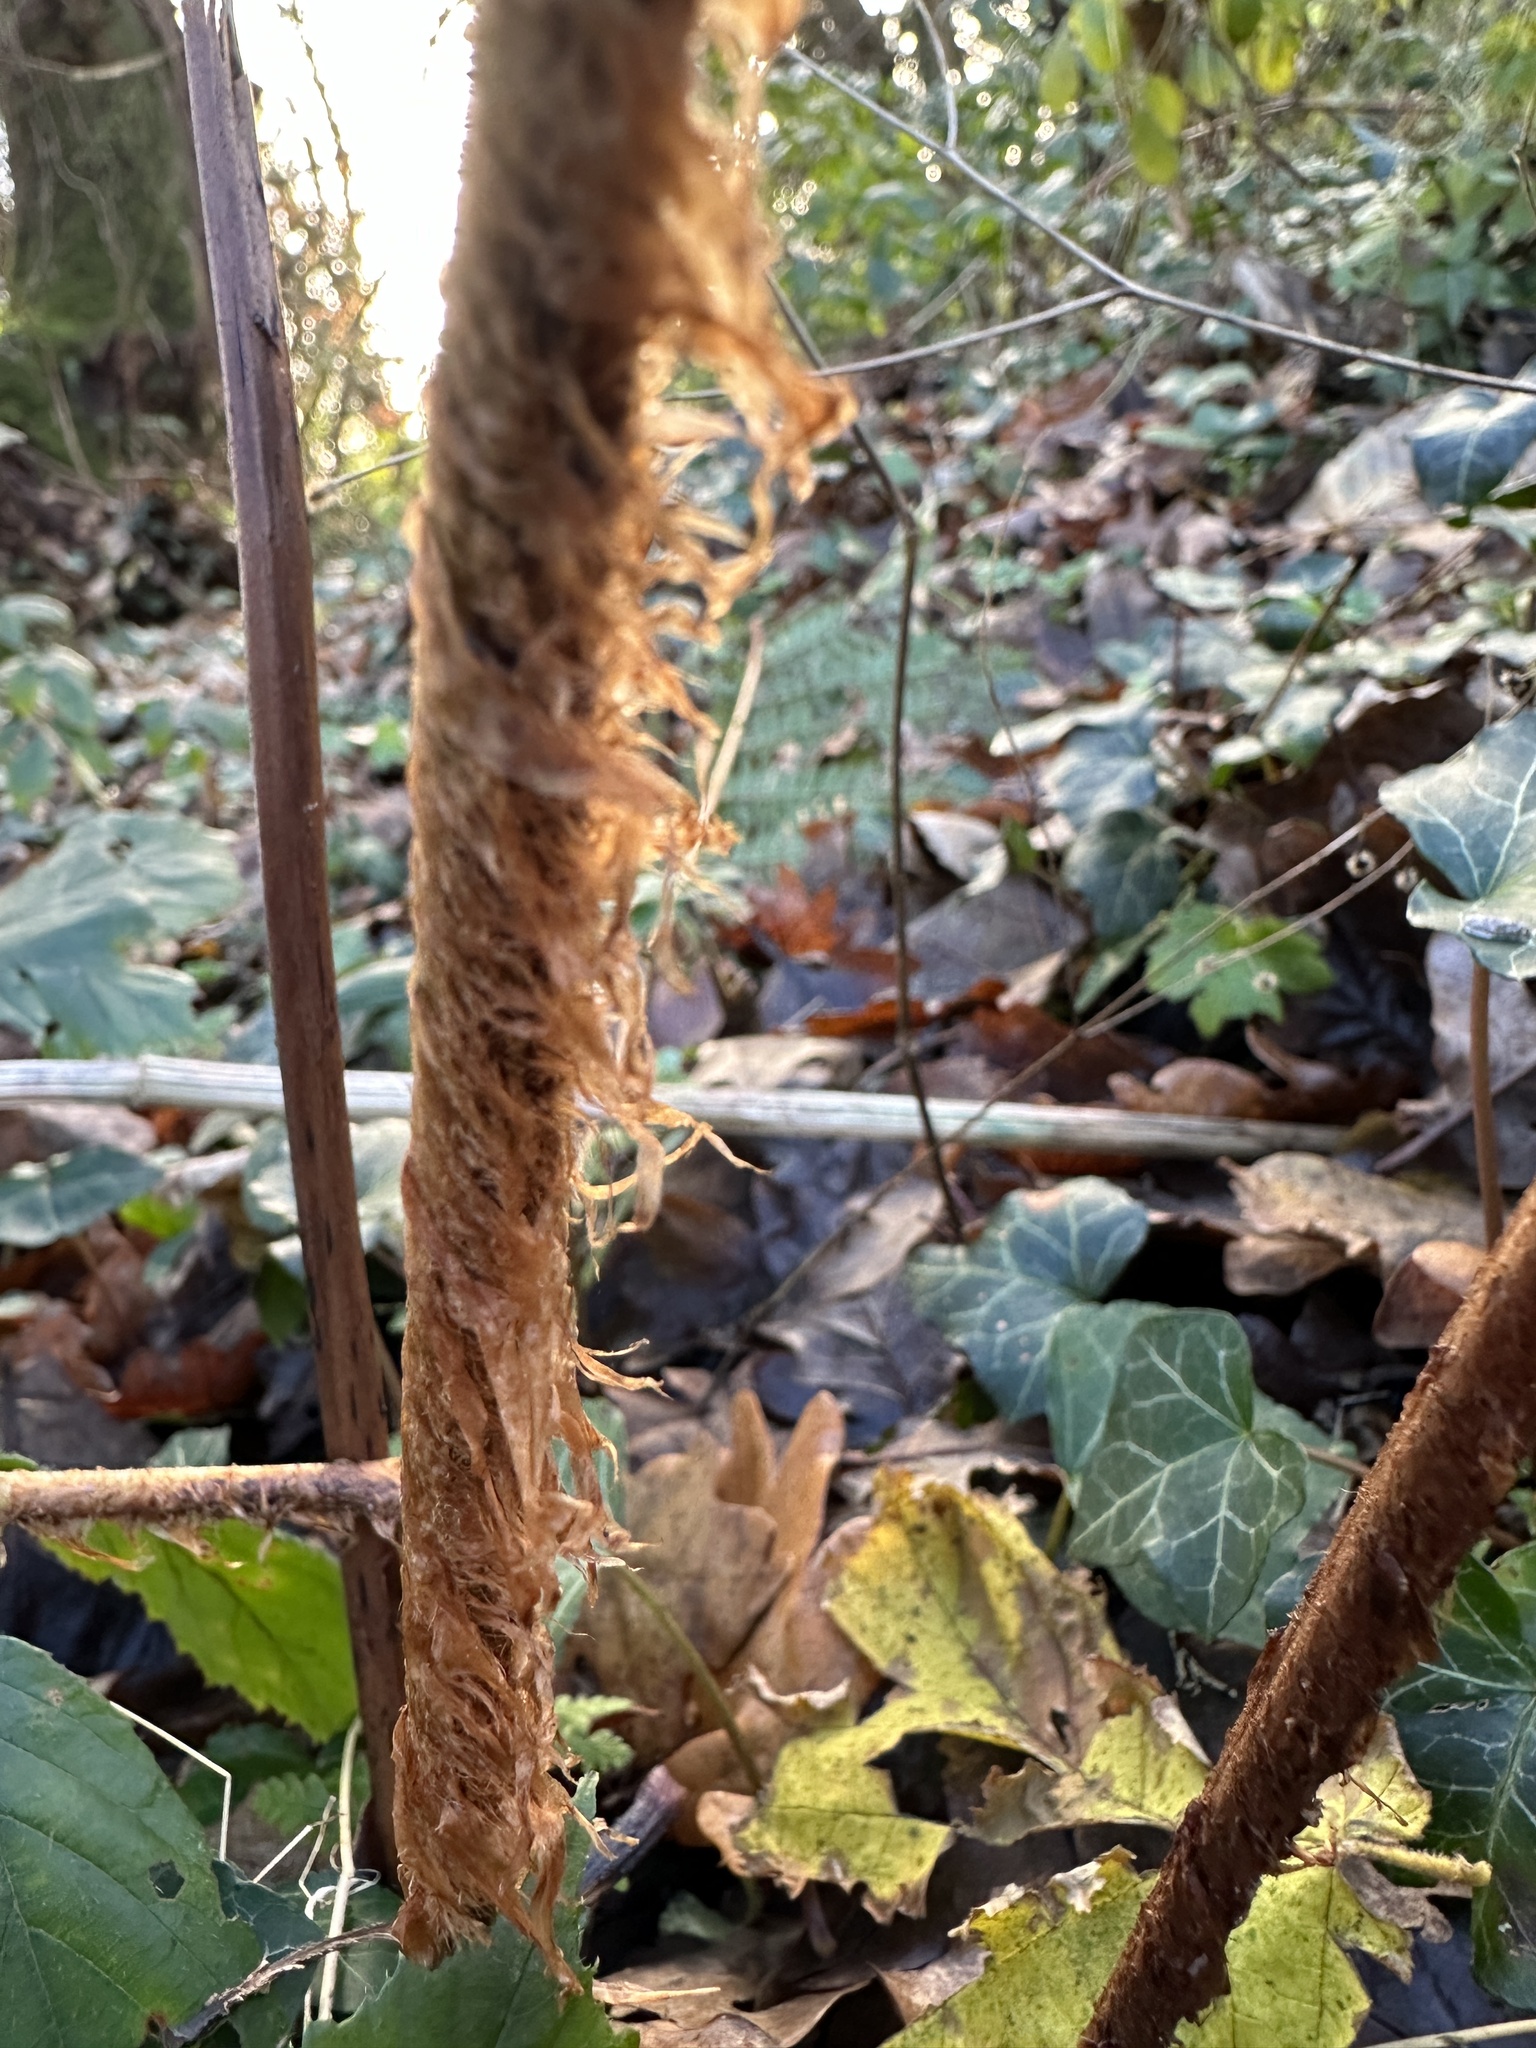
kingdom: Plantae
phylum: Tracheophyta
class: Polypodiopsida
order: Polypodiales
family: Dryopteridaceae
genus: Dryopteris
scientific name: Dryopteris filix-mas
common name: Male fern
